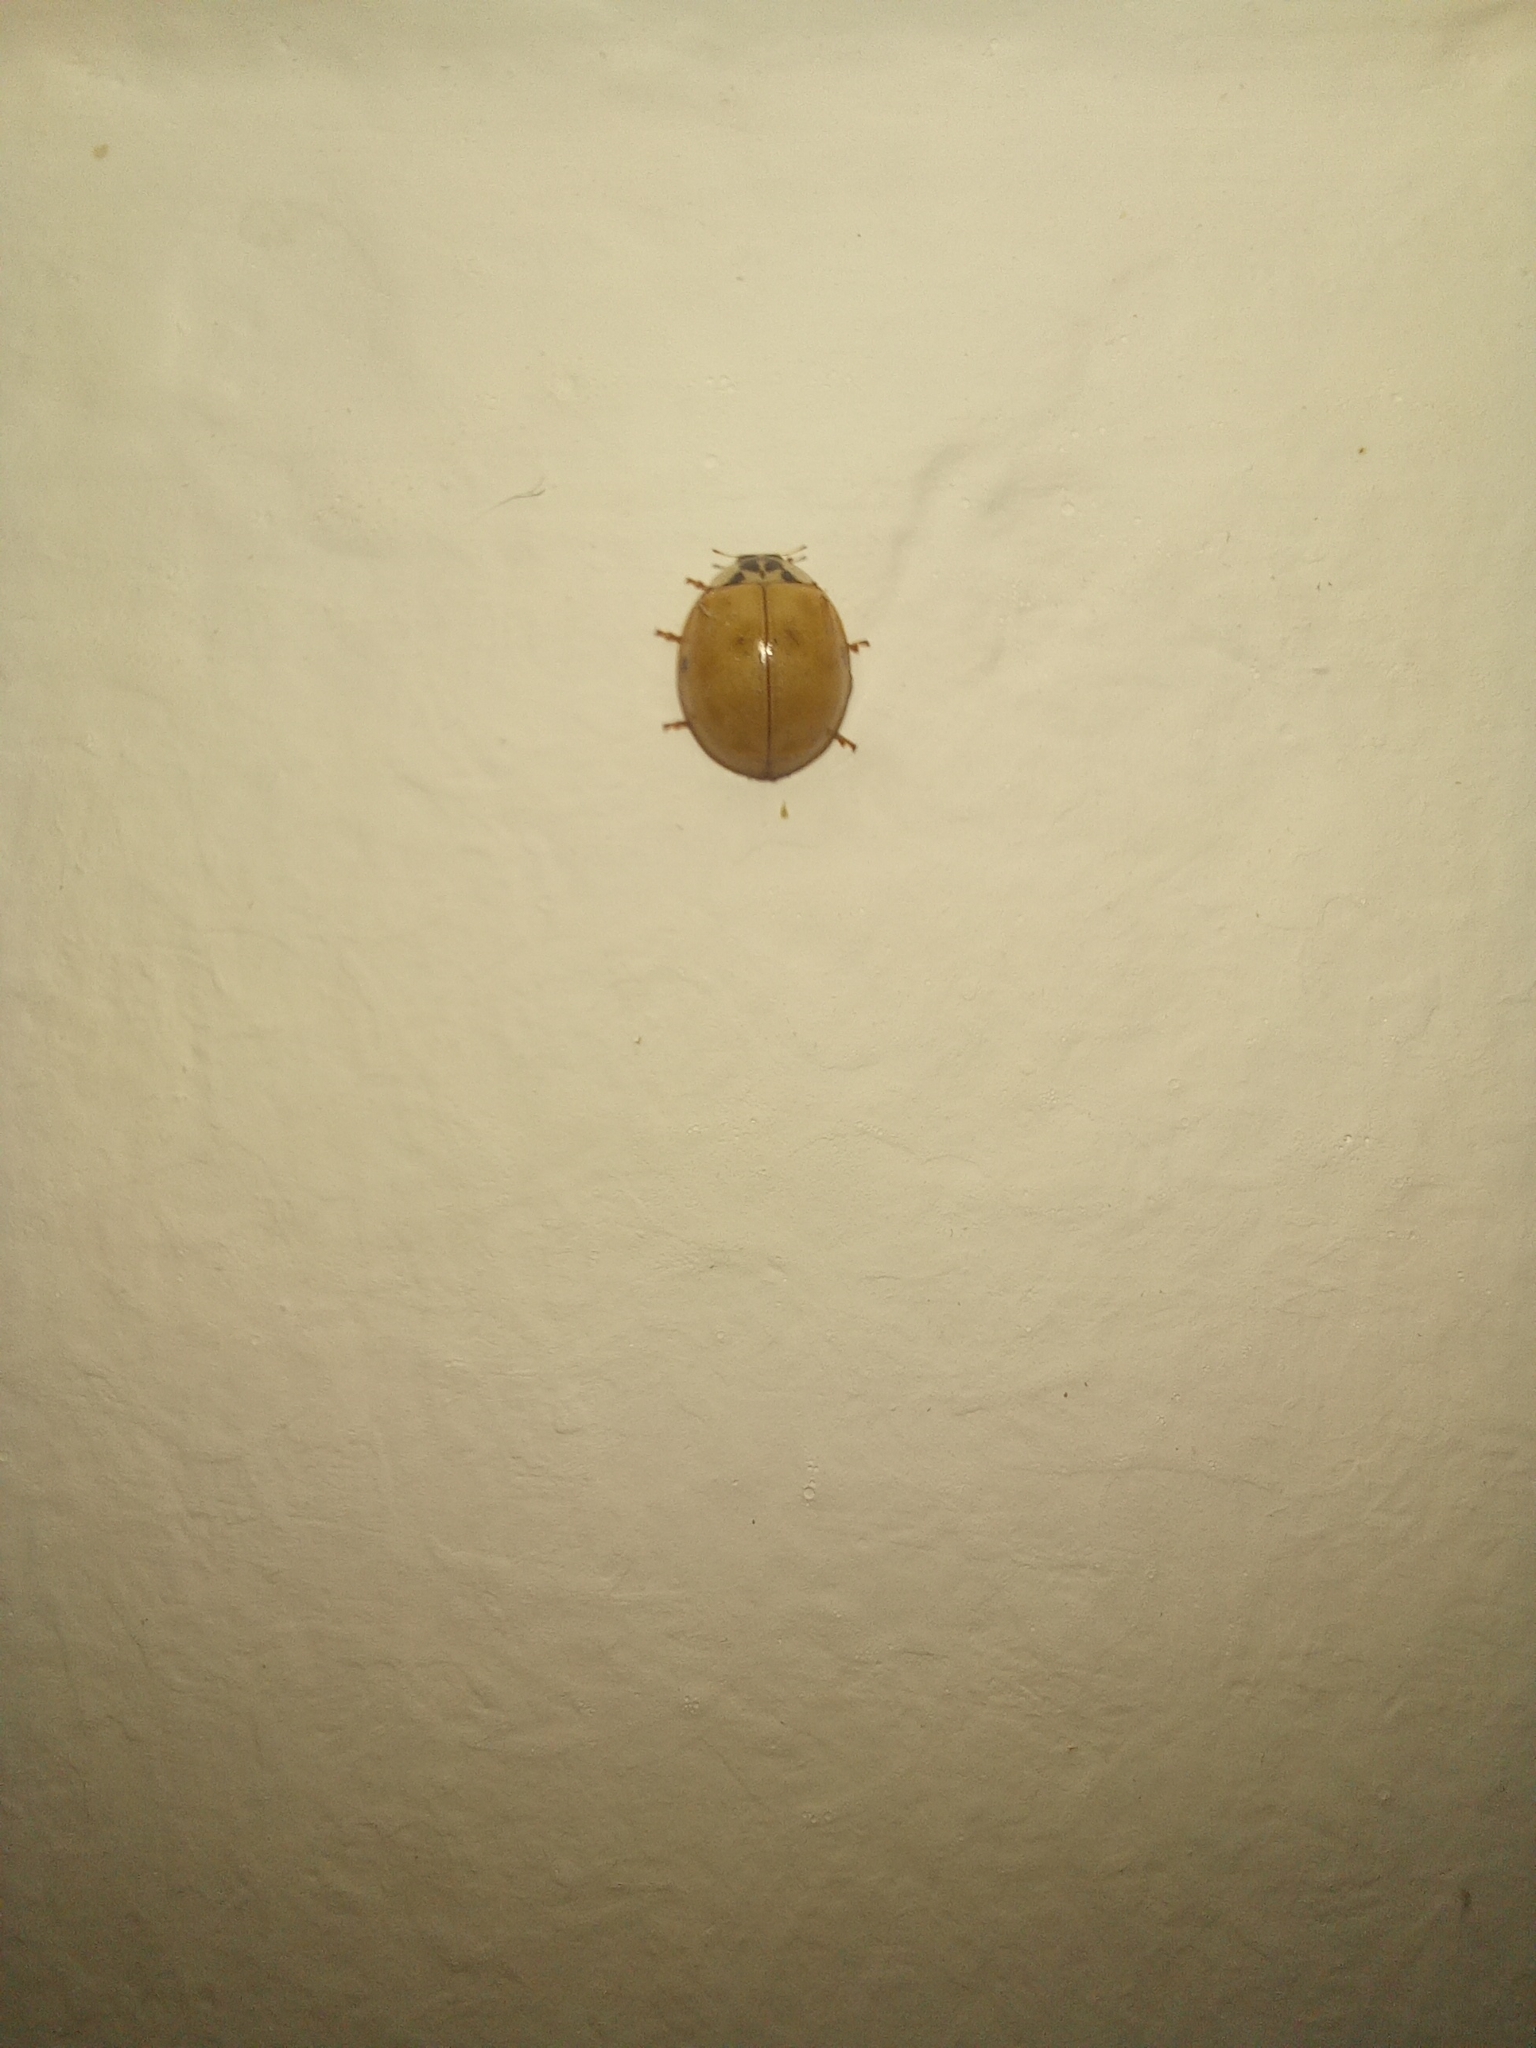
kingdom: Animalia
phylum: Arthropoda
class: Insecta
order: Coleoptera
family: Coccinellidae
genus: Harmonia
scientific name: Harmonia axyridis
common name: Harlequin ladybird
